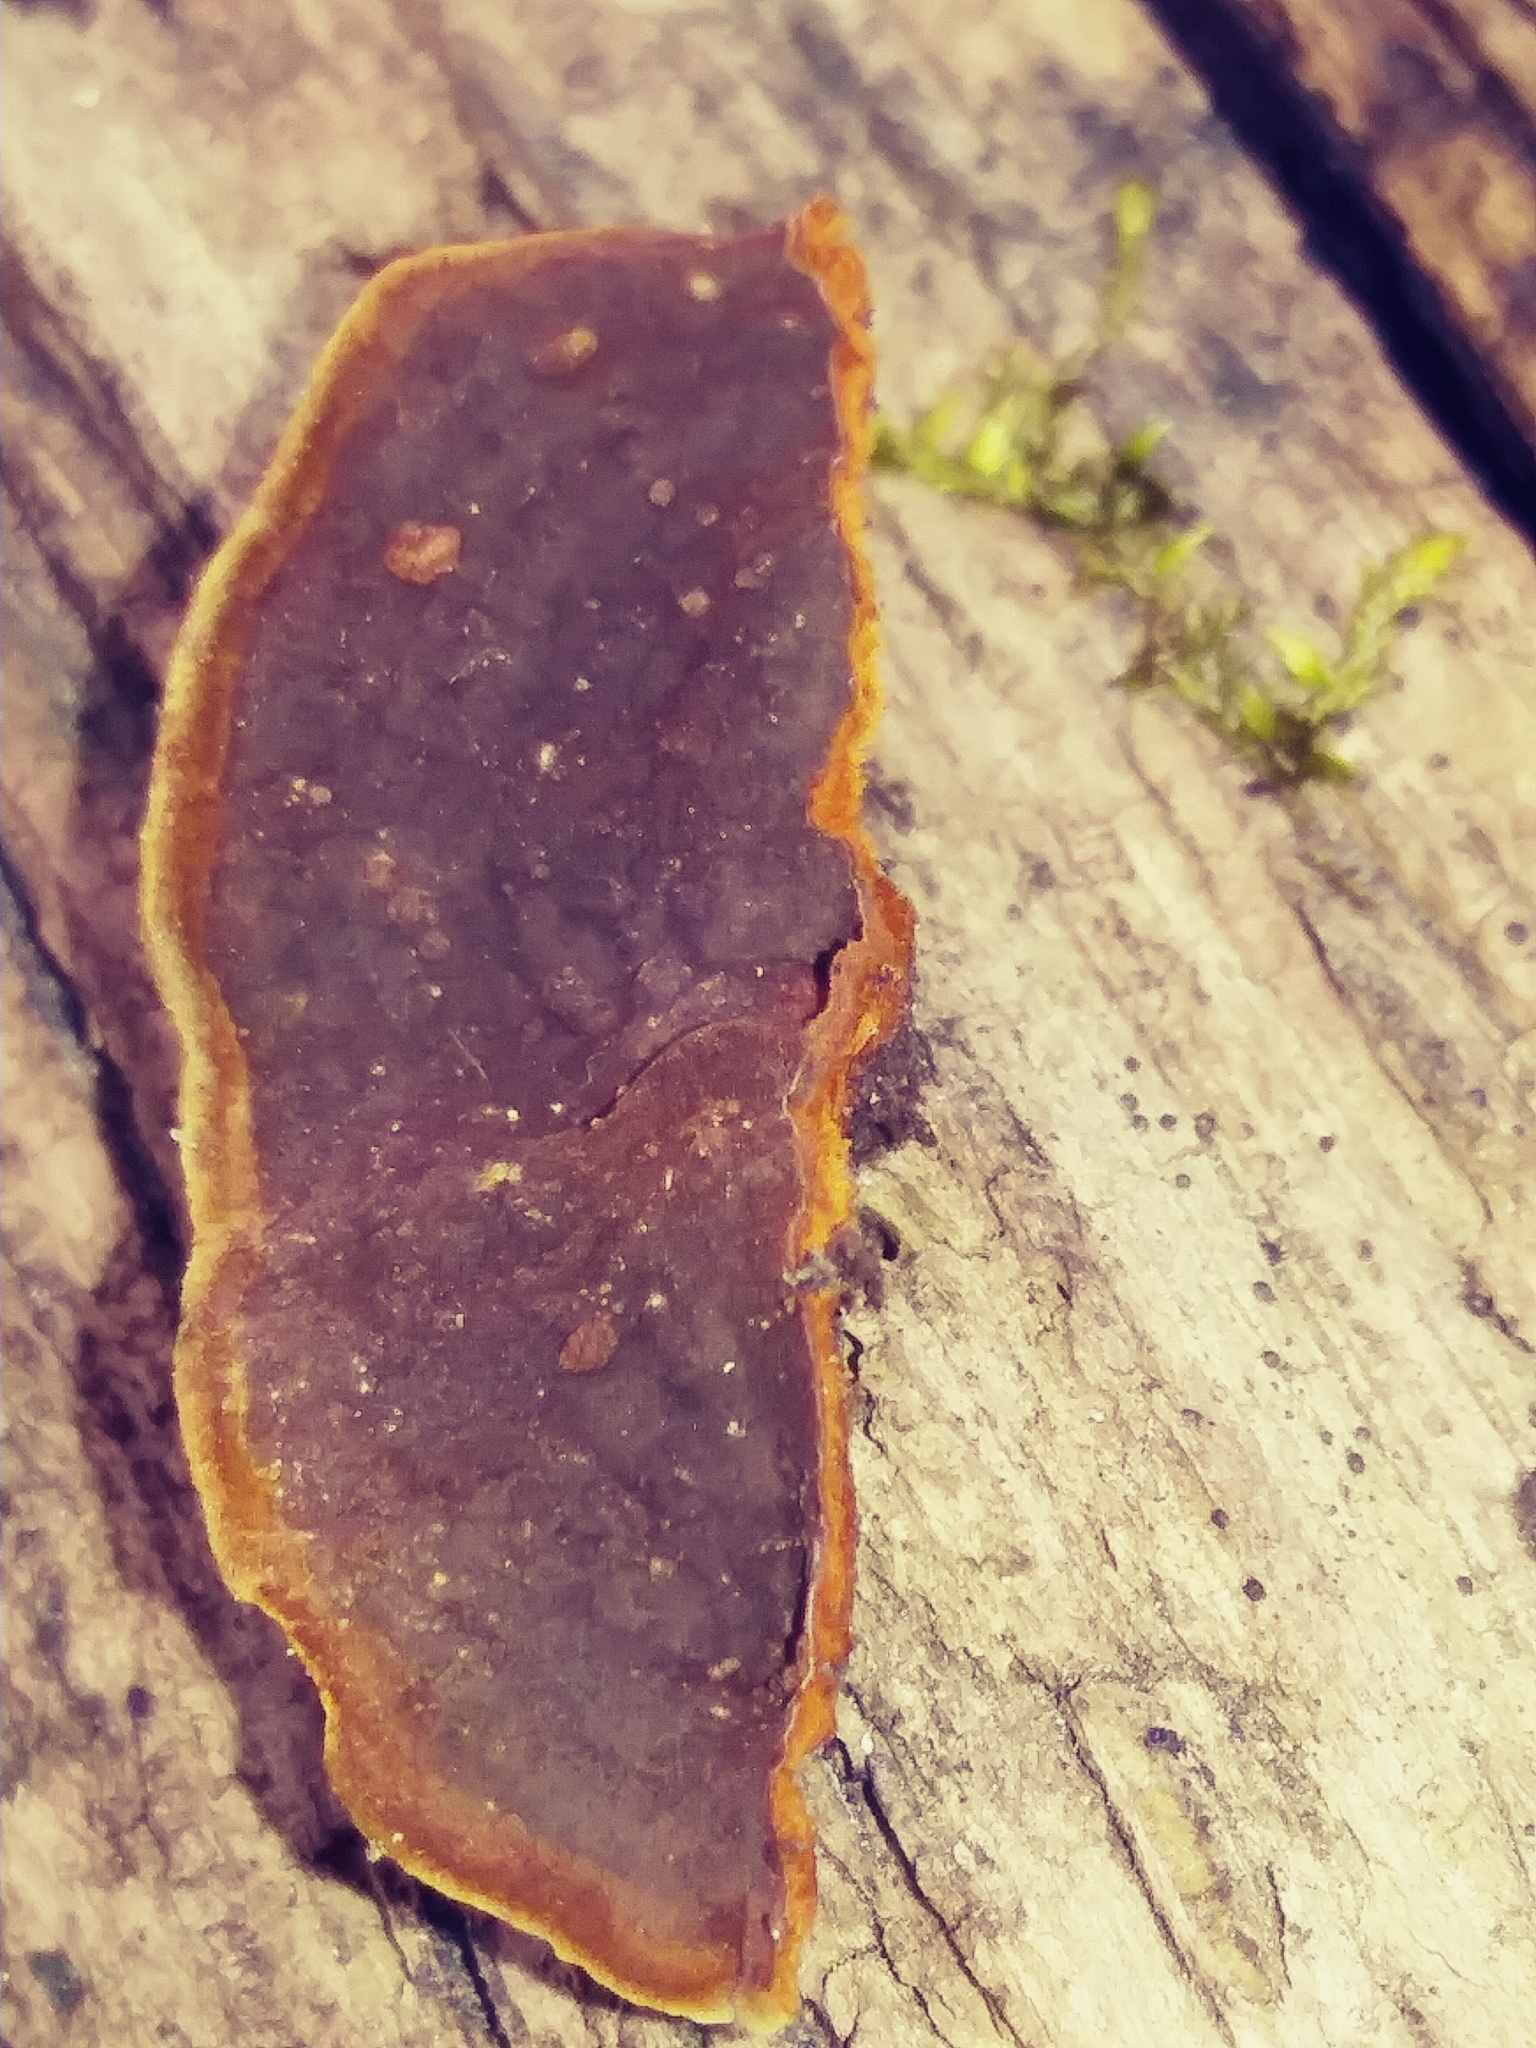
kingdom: Fungi
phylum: Basidiomycota
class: Agaricomycetes
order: Hymenochaetales
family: Hymenochaetaceae
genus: Phellinus
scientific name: Phellinus gilvus
